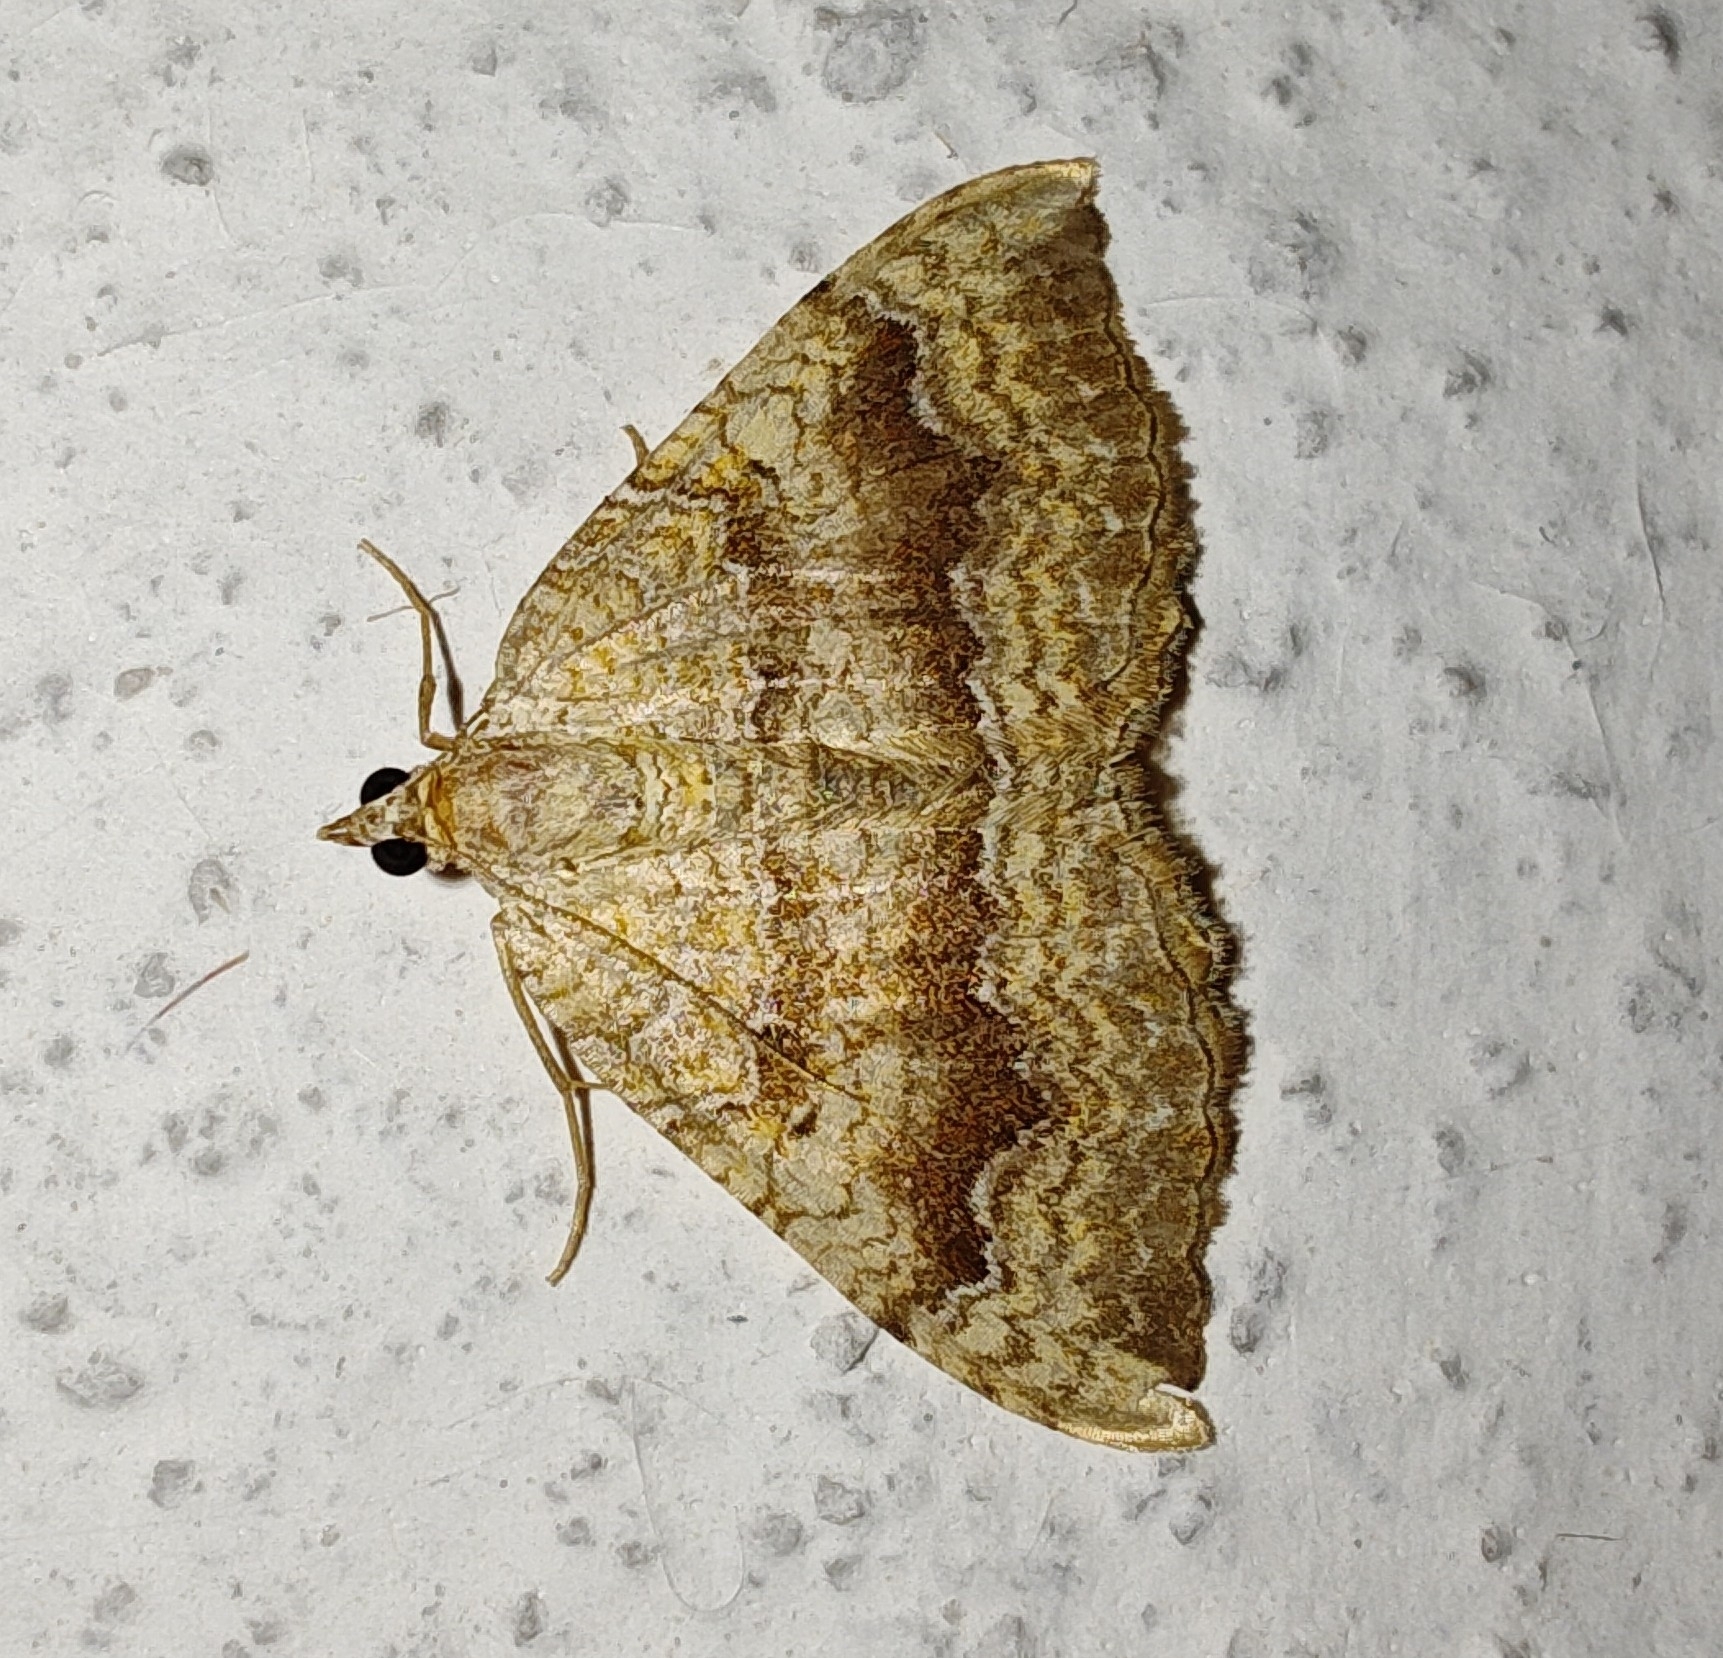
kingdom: Animalia
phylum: Arthropoda
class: Insecta
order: Lepidoptera
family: Geometridae
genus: Camptogramma
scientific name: Camptogramma bilineata
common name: Yellow shell
